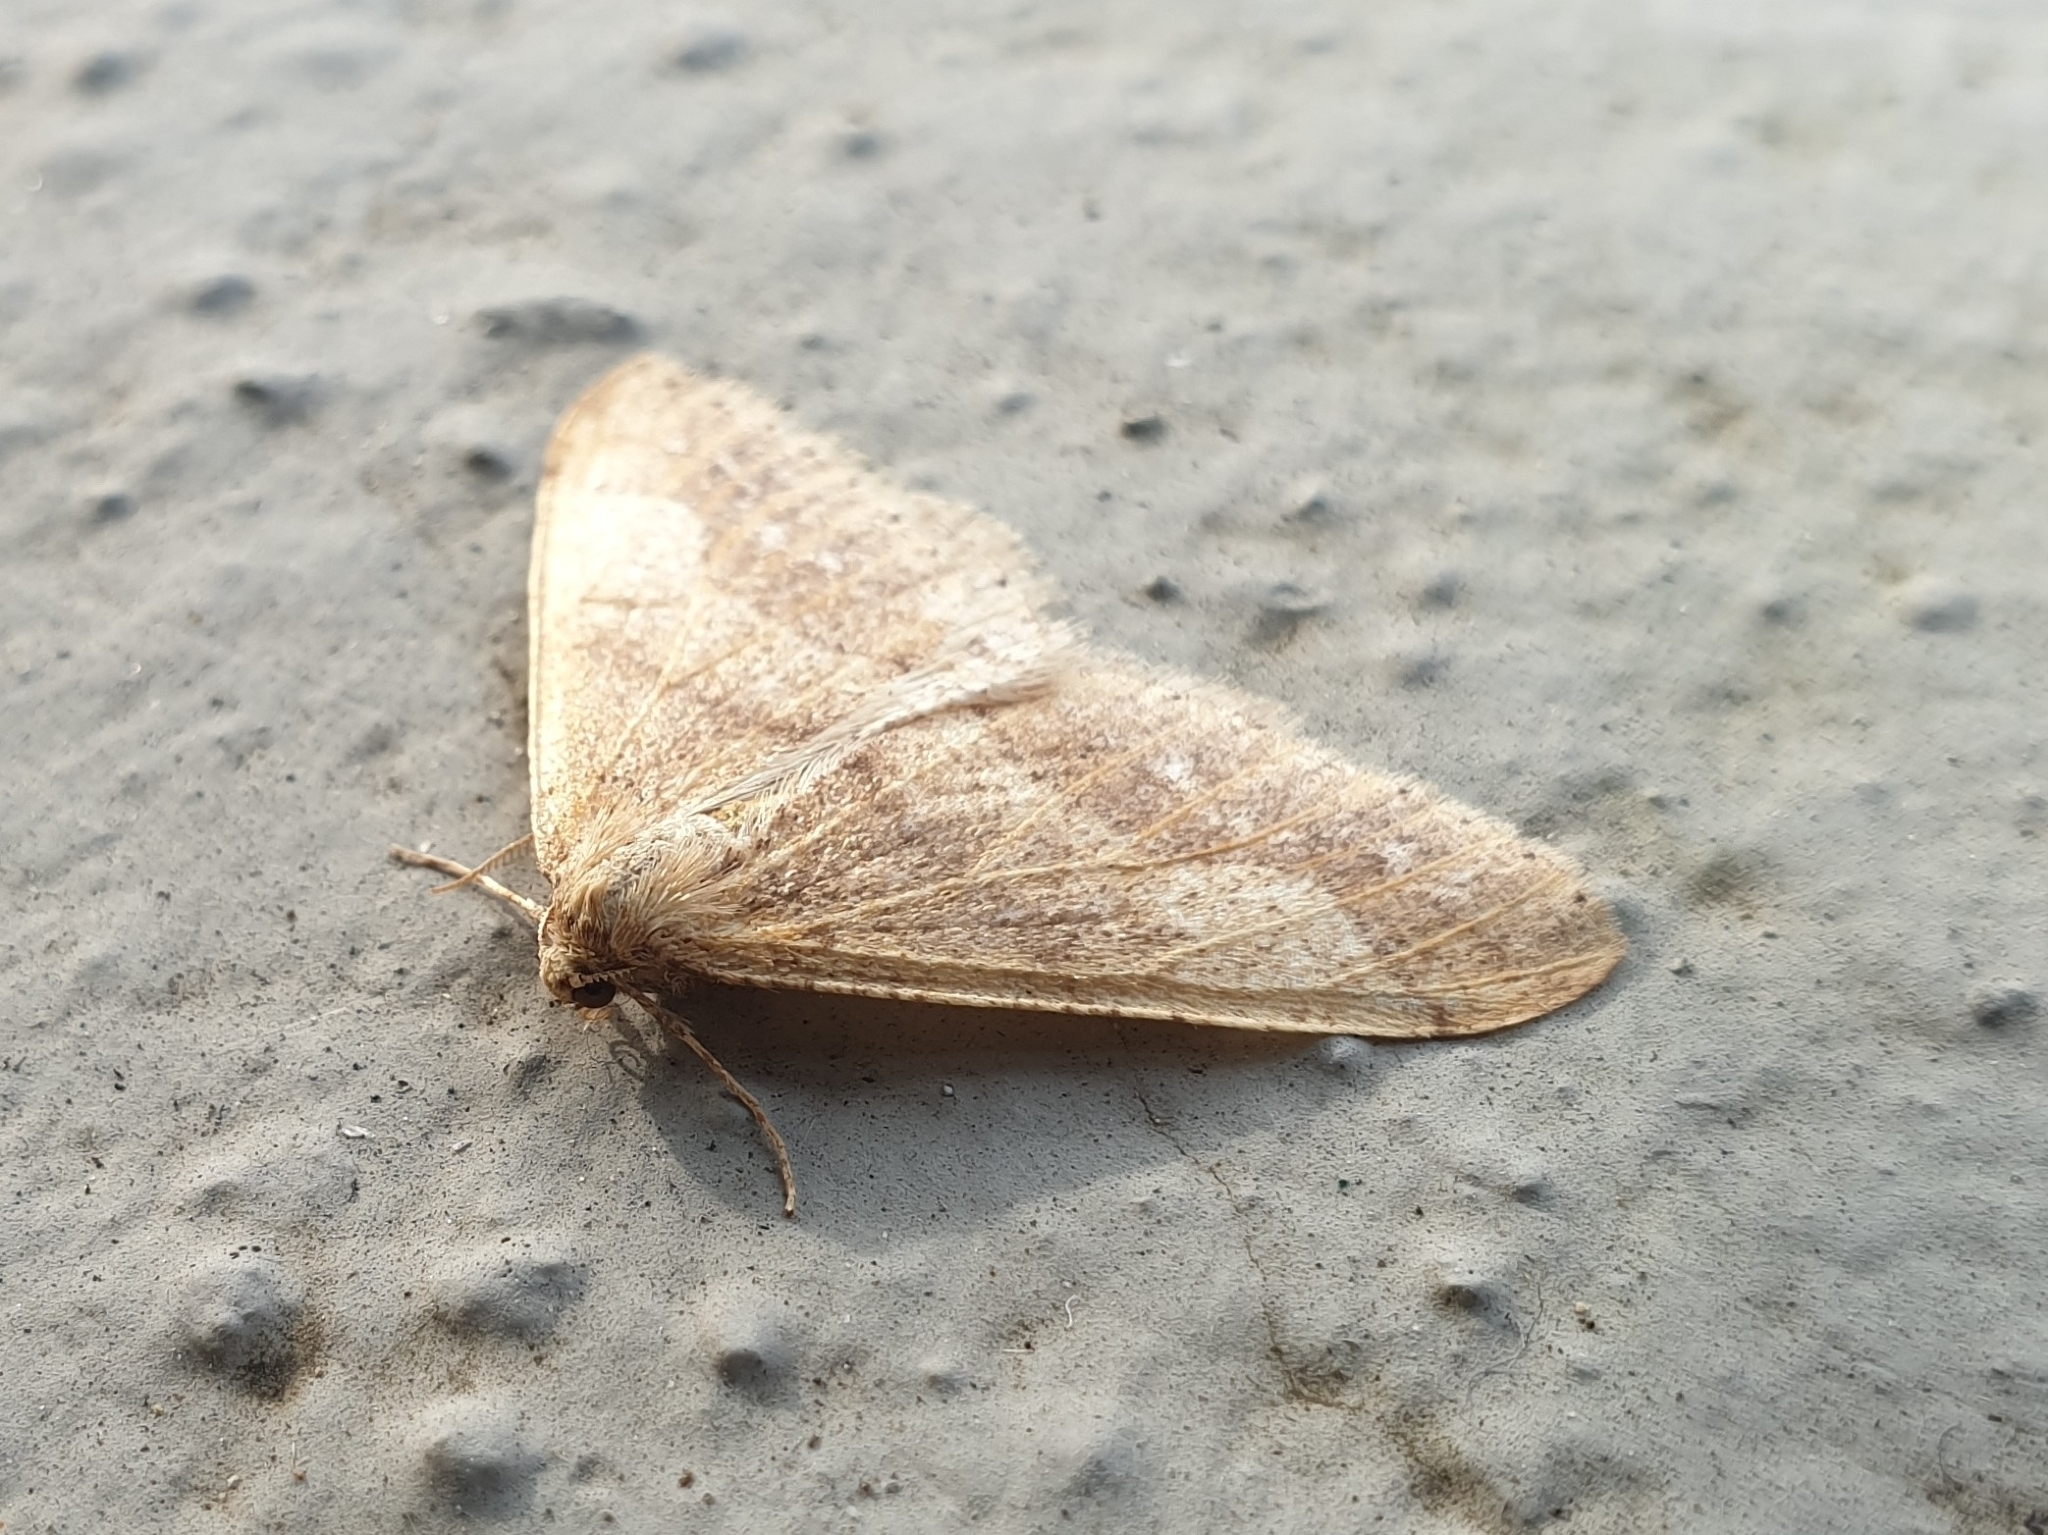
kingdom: Animalia
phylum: Arthropoda
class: Insecta
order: Lepidoptera
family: Geometridae
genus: Agriopis
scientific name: Agriopis marginaria
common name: Dotted border
